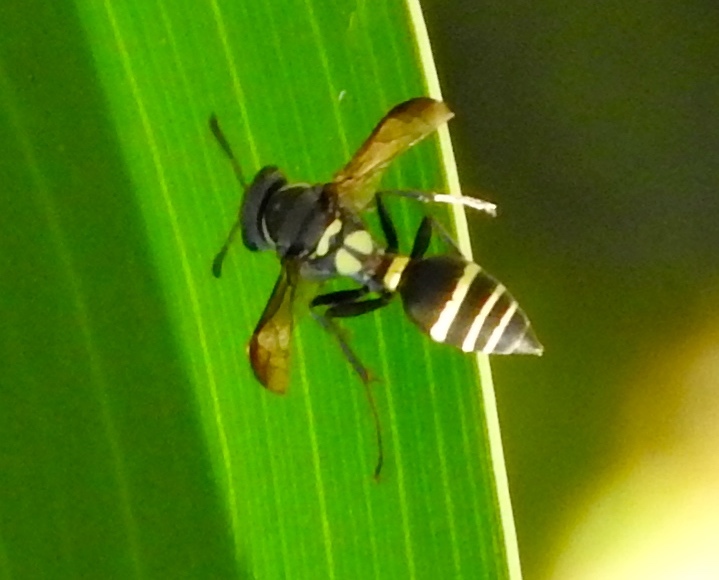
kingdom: Animalia
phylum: Arthropoda
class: Insecta
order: Hymenoptera
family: Vespidae
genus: Myrapetra
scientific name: Myrapetra
